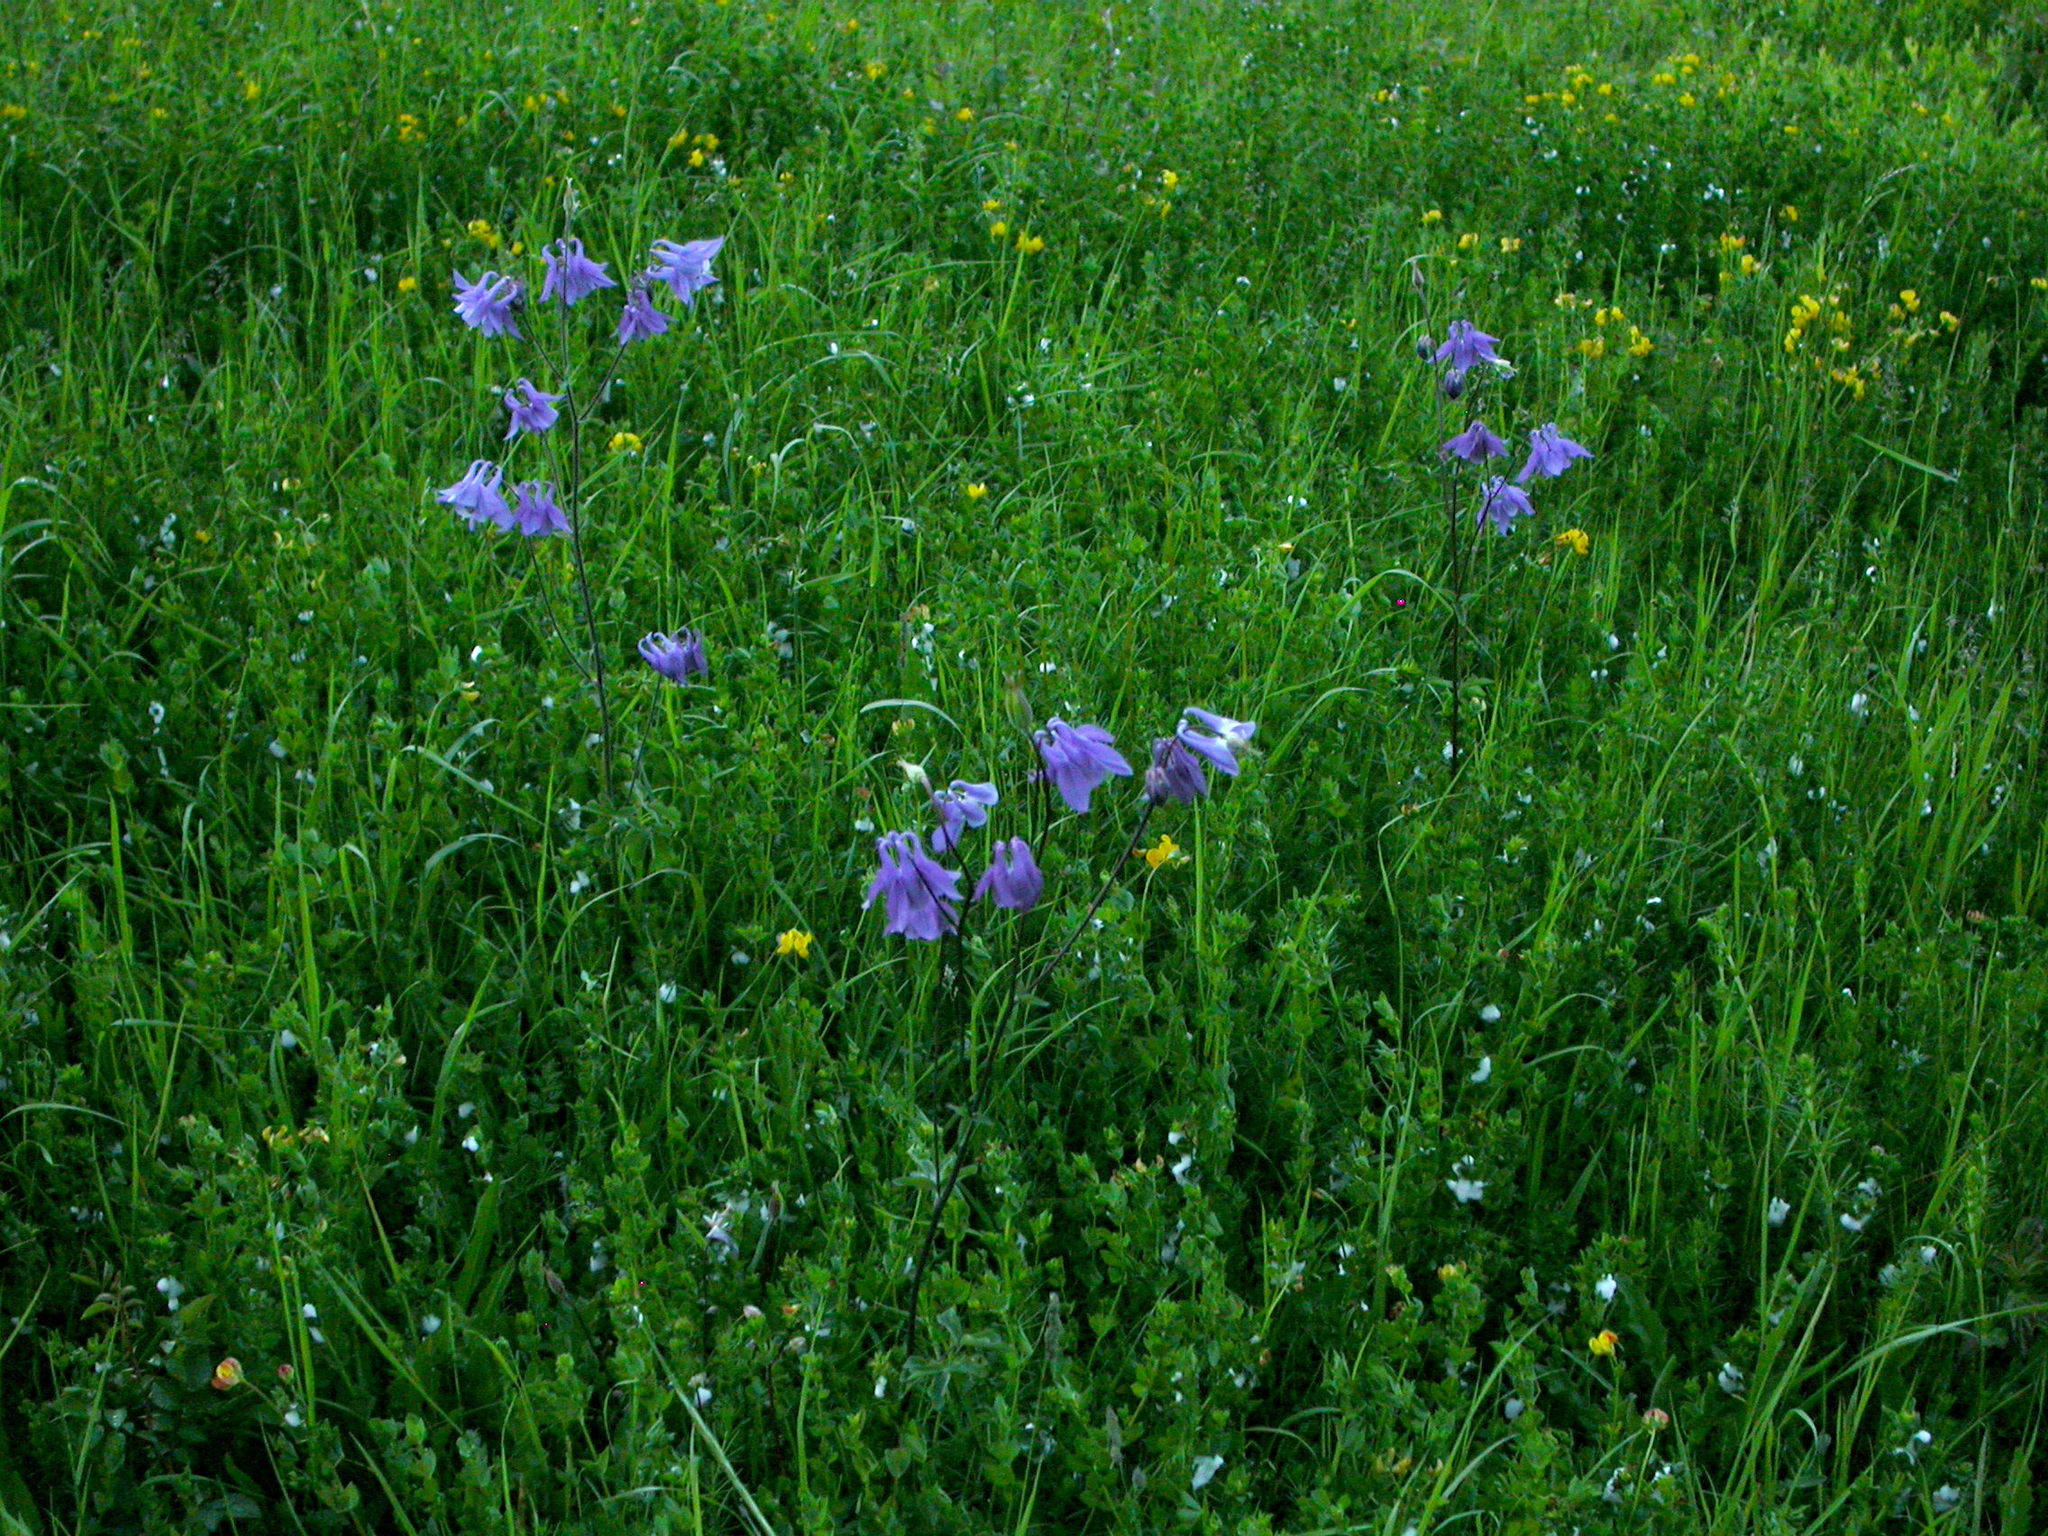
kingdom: Plantae
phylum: Tracheophyta
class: Magnoliopsida
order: Ranunculales
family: Ranunculaceae
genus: Aquilegia
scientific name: Aquilegia vulgaris
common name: Columbine
